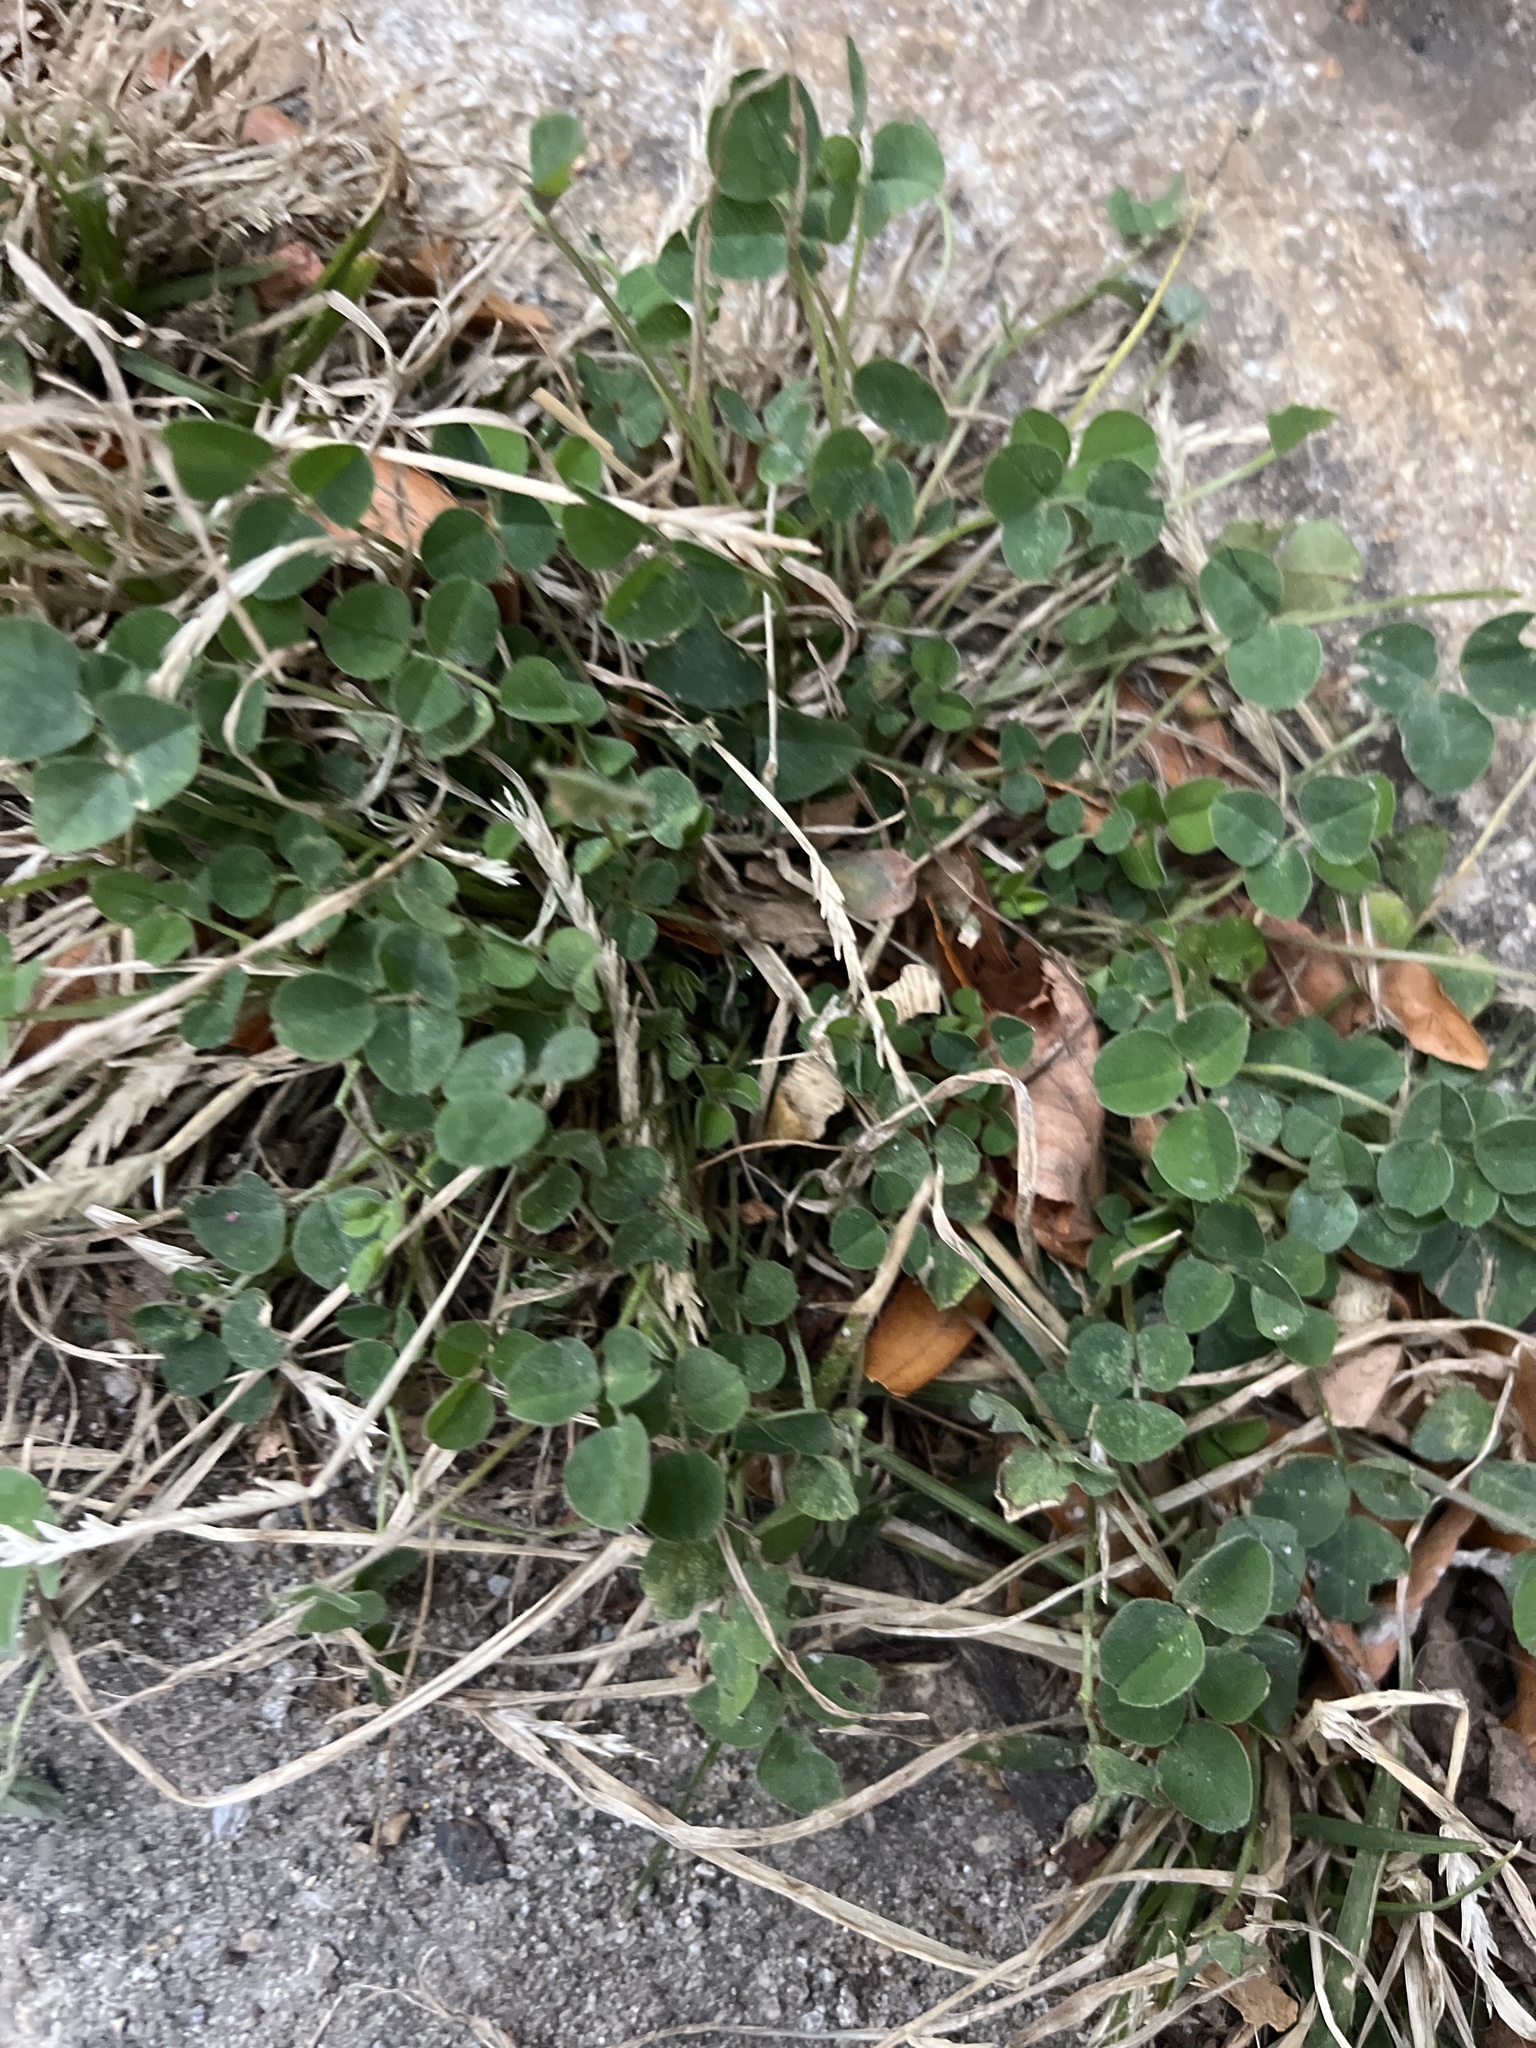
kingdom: Plantae
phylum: Tracheophyta
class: Magnoliopsida
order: Fabales
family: Fabaceae
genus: Medicago
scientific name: Medicago lupulina
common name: Black medick
